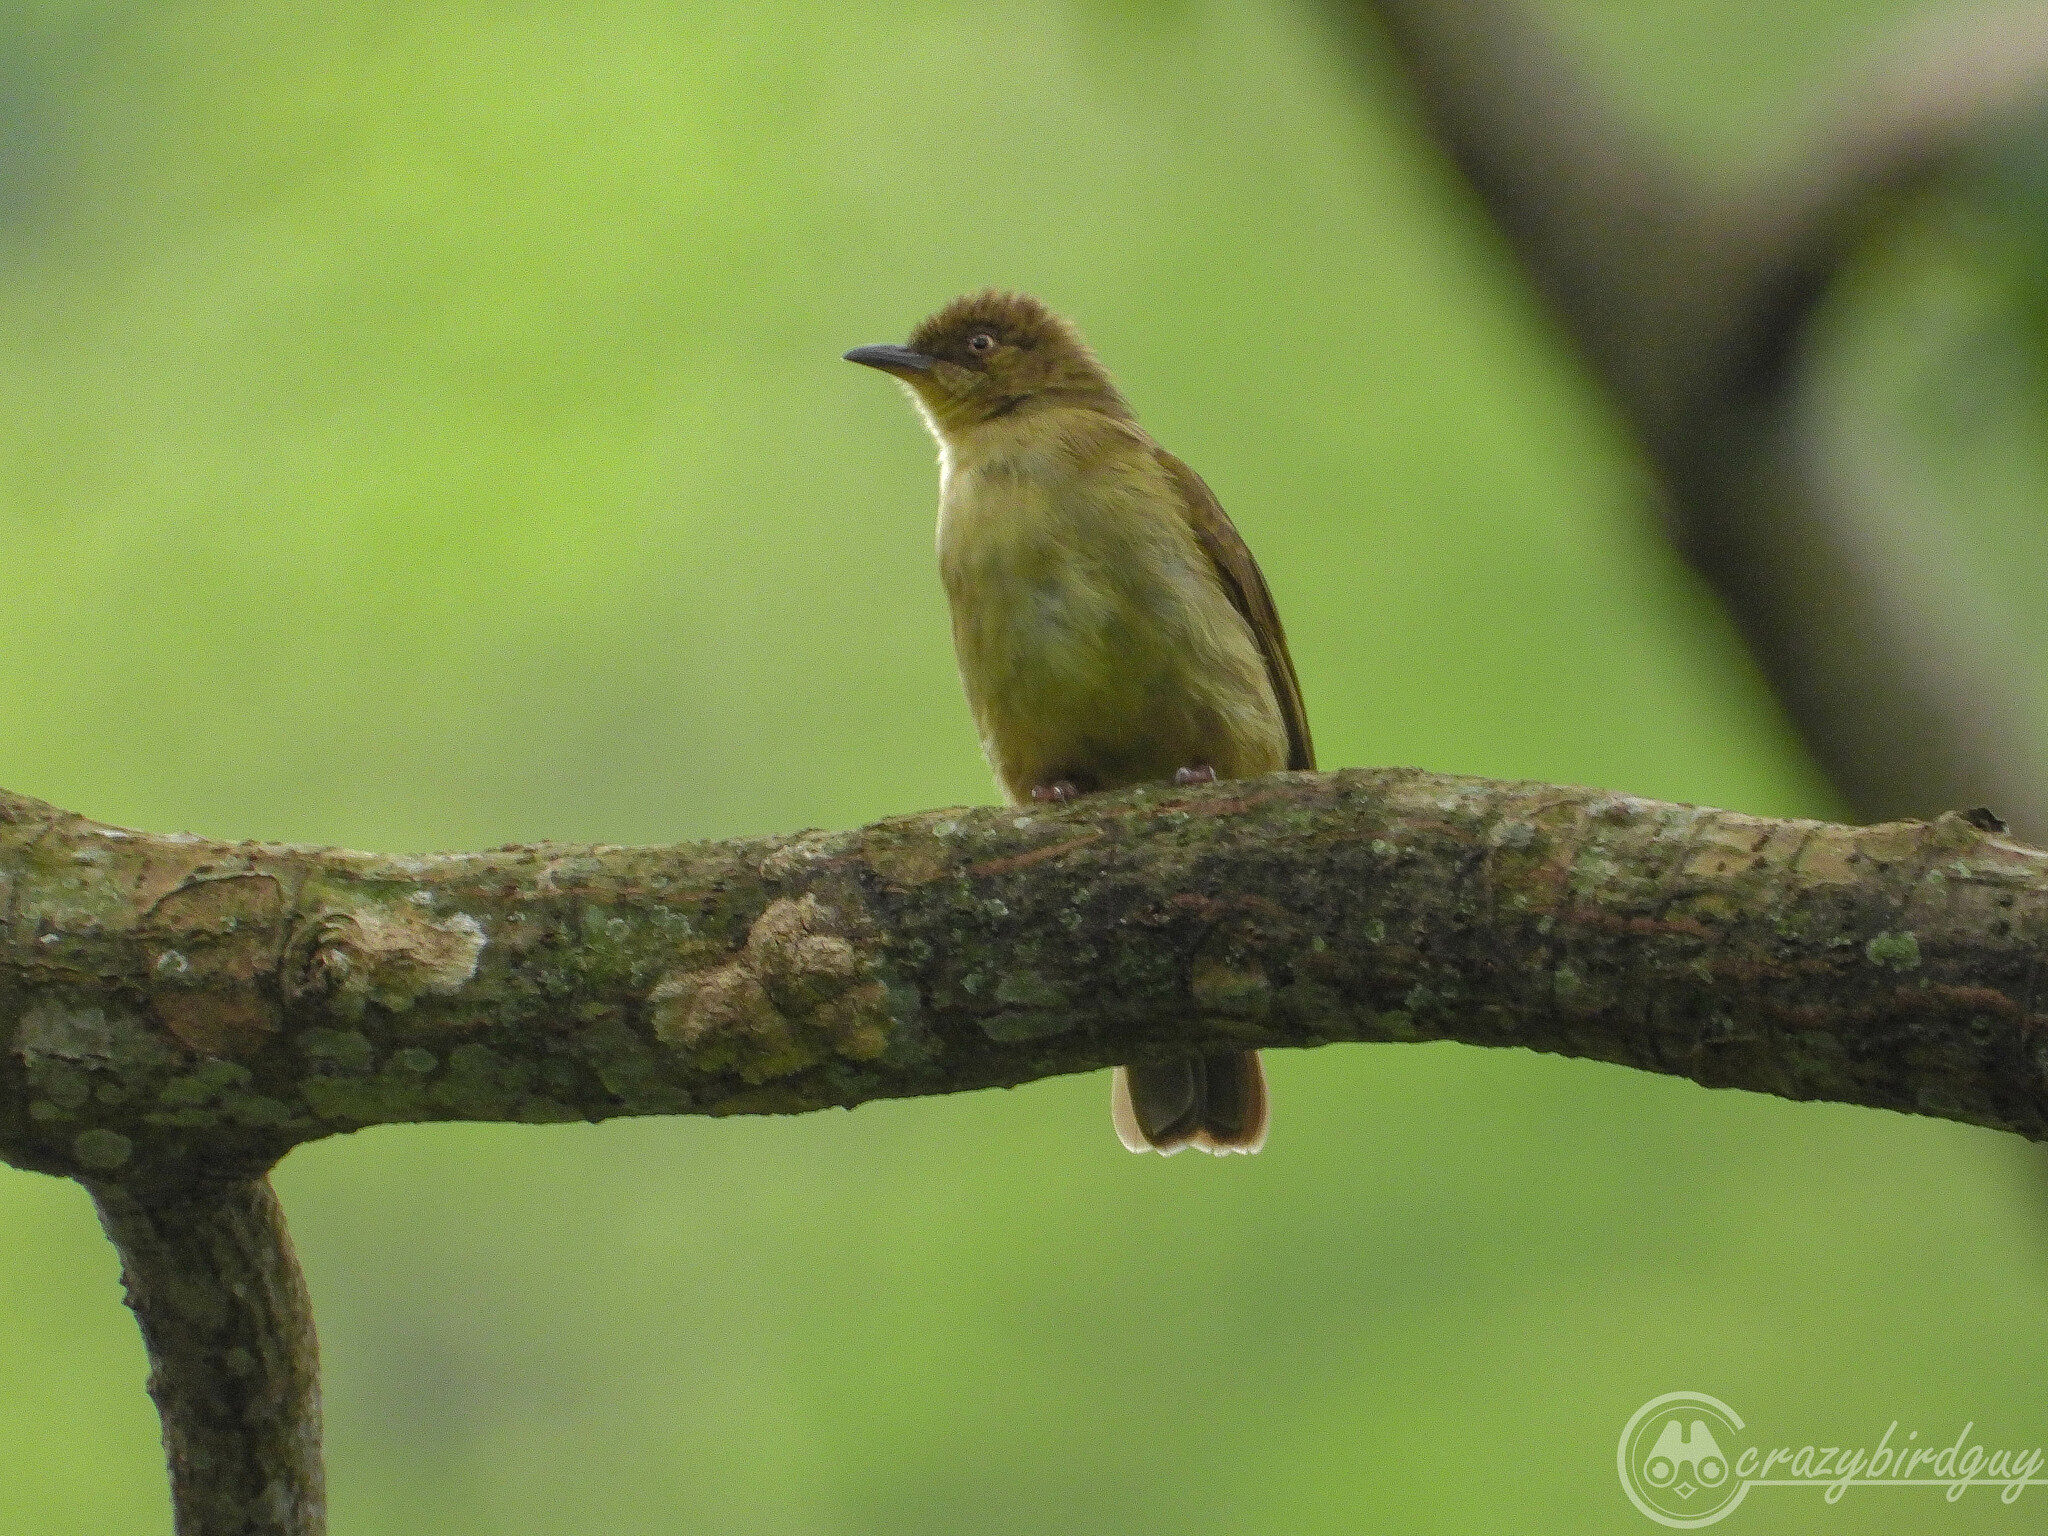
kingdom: Animalia
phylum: Chordata
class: Aves
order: Passeriformes
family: Pycnonotidae
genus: Pycnonotus
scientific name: Pycnonotus simplex
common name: Cream-vented bulbul
